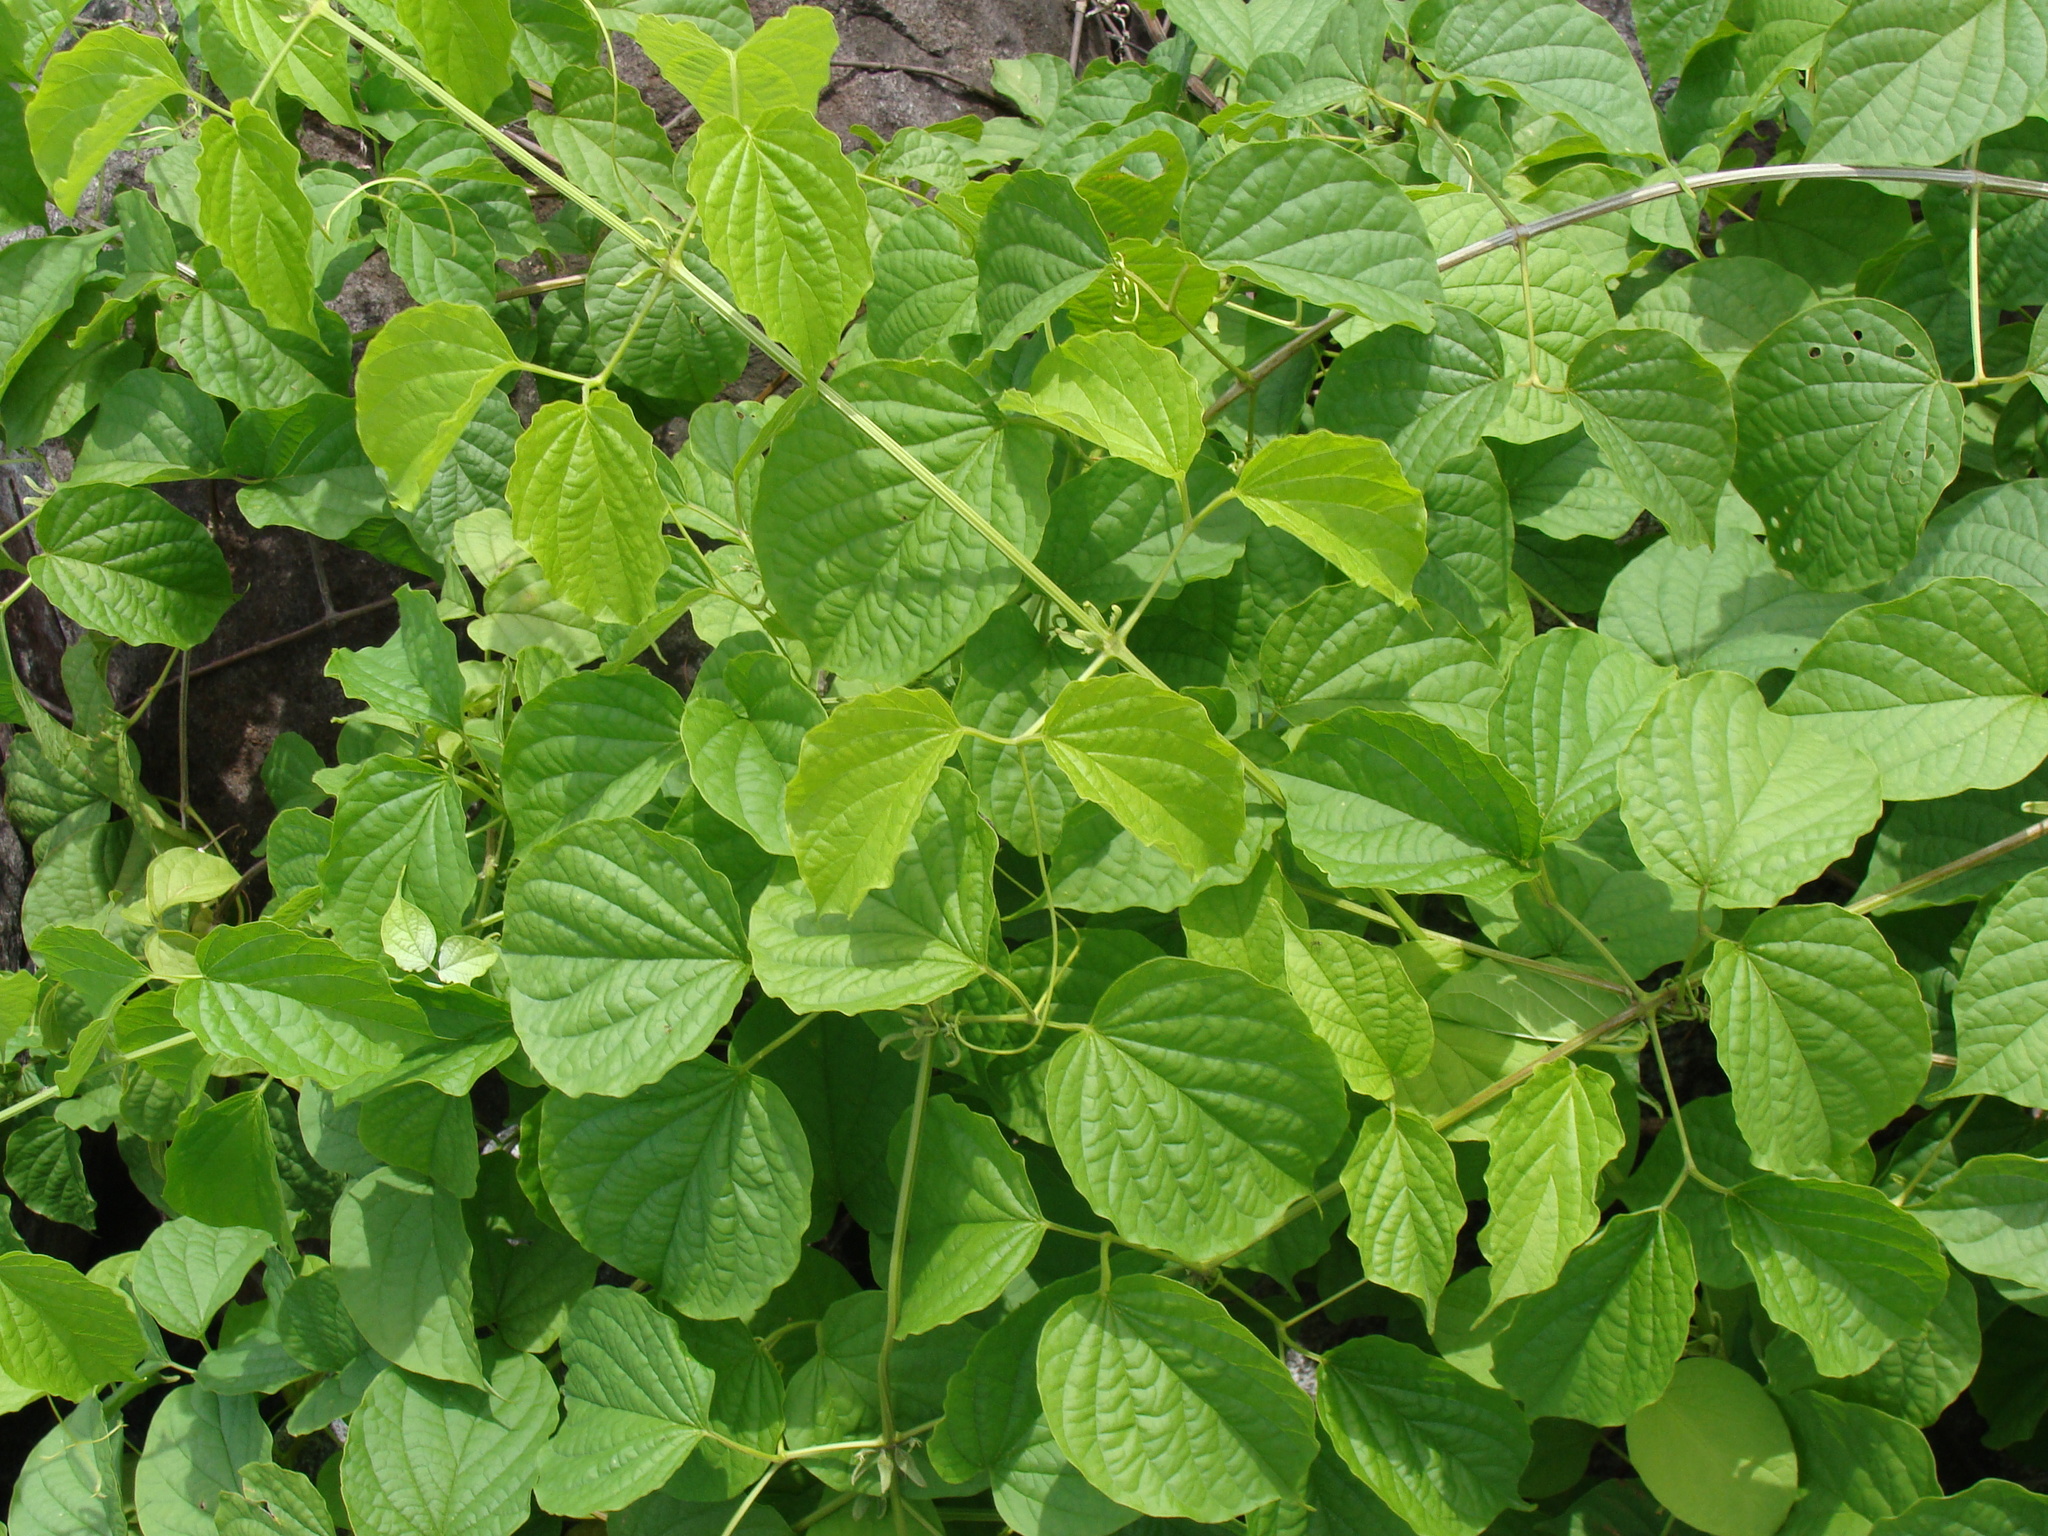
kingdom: Plantae
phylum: Tracheophyta
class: Magnoliopsida
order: Lamiales
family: Bignoniaceae
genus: Amphilophium
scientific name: Amphilophium crucigerum
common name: Monkey comb
